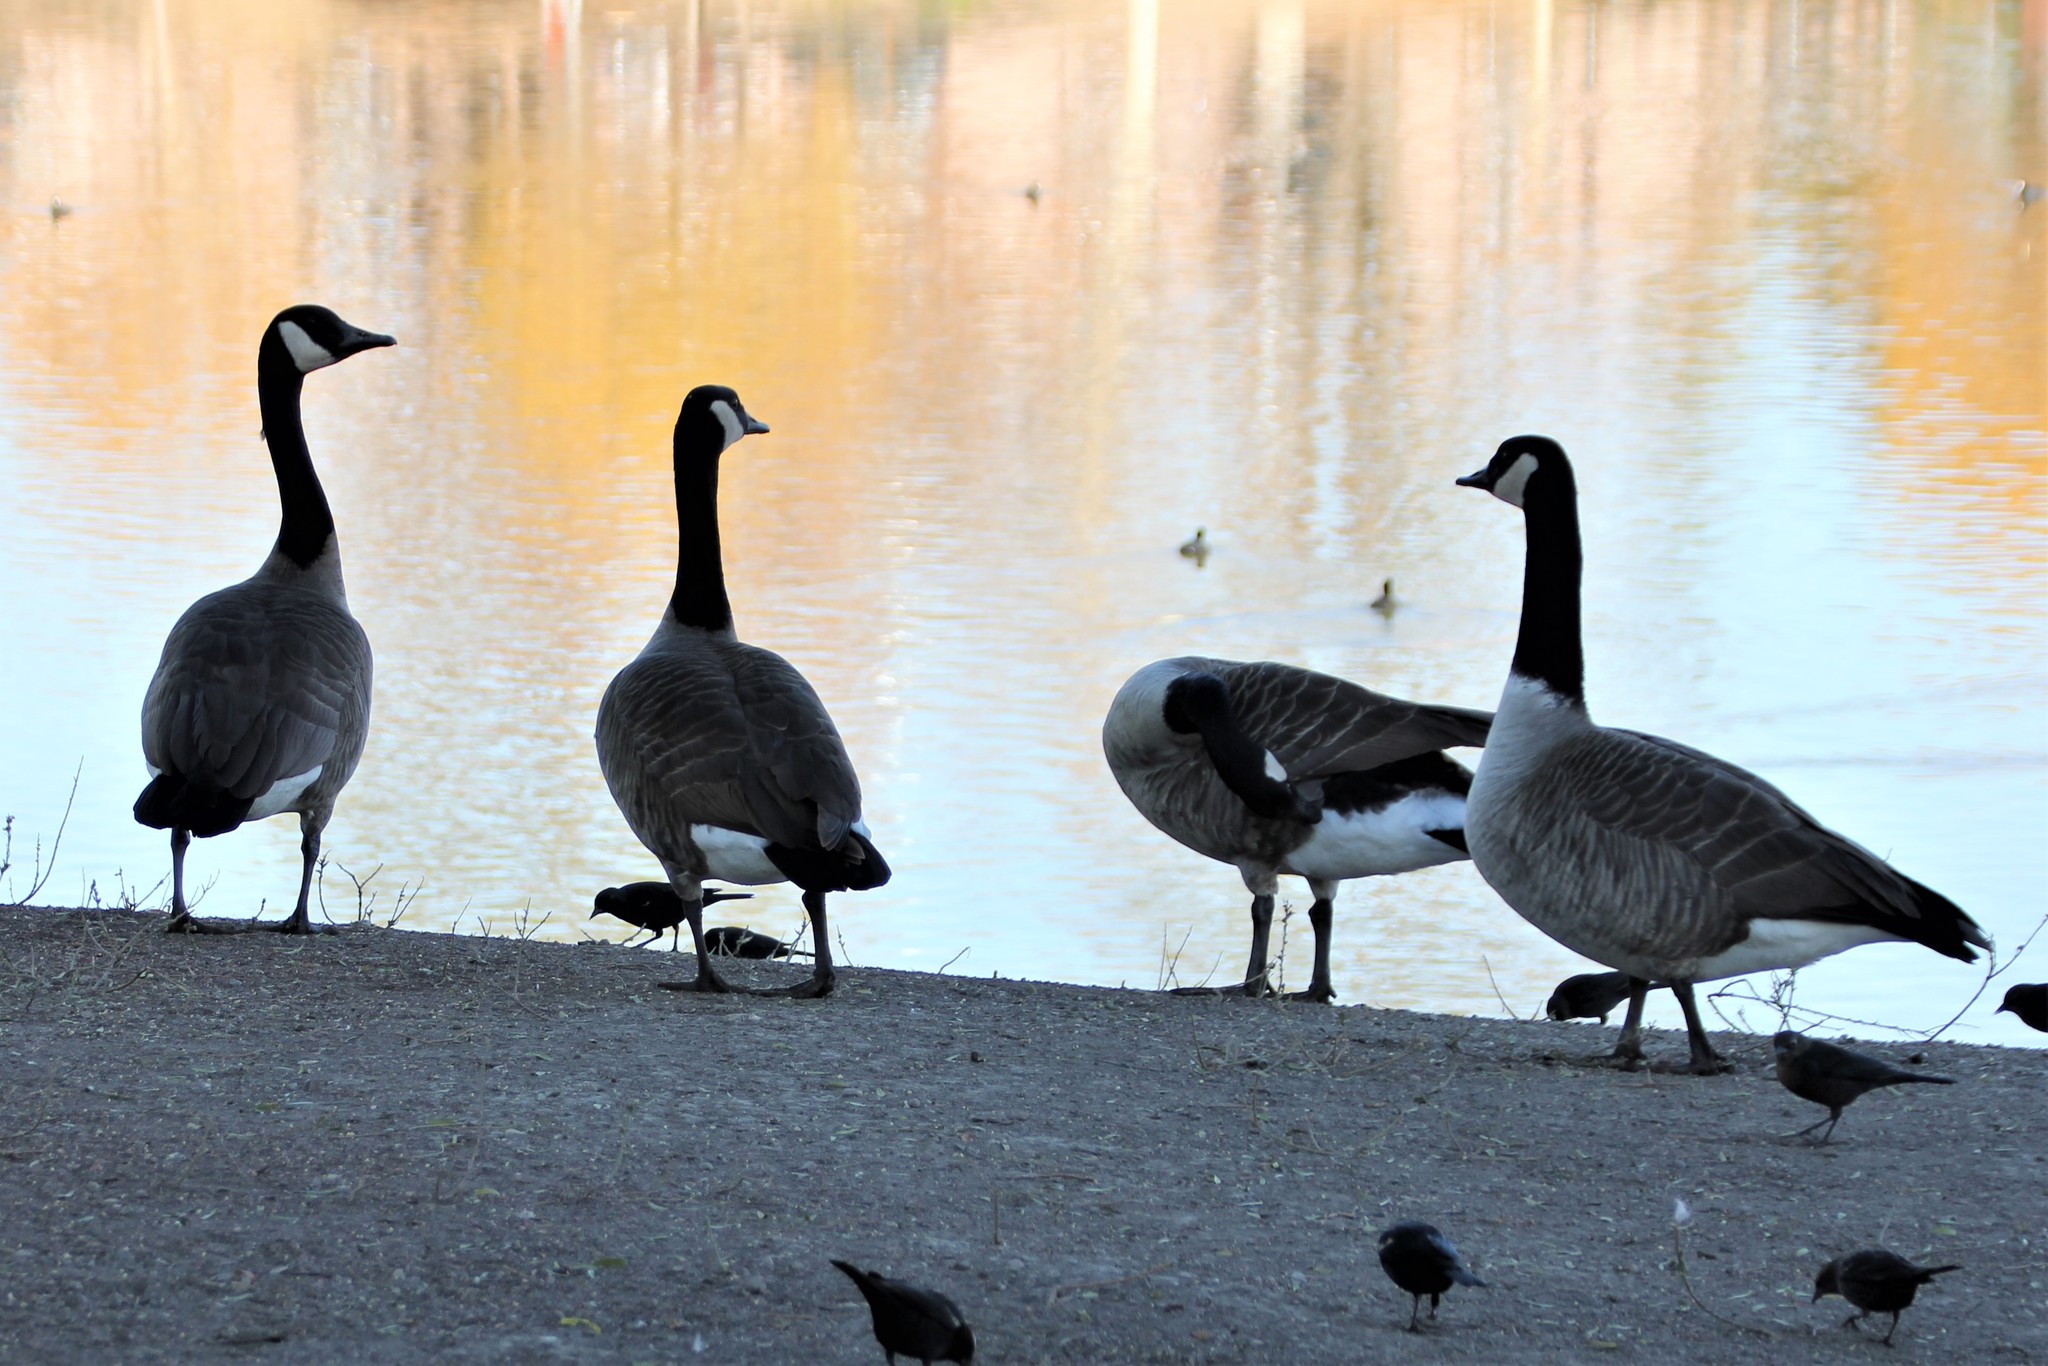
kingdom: Animalia
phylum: Chordata
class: Aves
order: Anseriformes
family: Anatidae
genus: Branta
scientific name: Branta canadensis
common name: Canada goose
